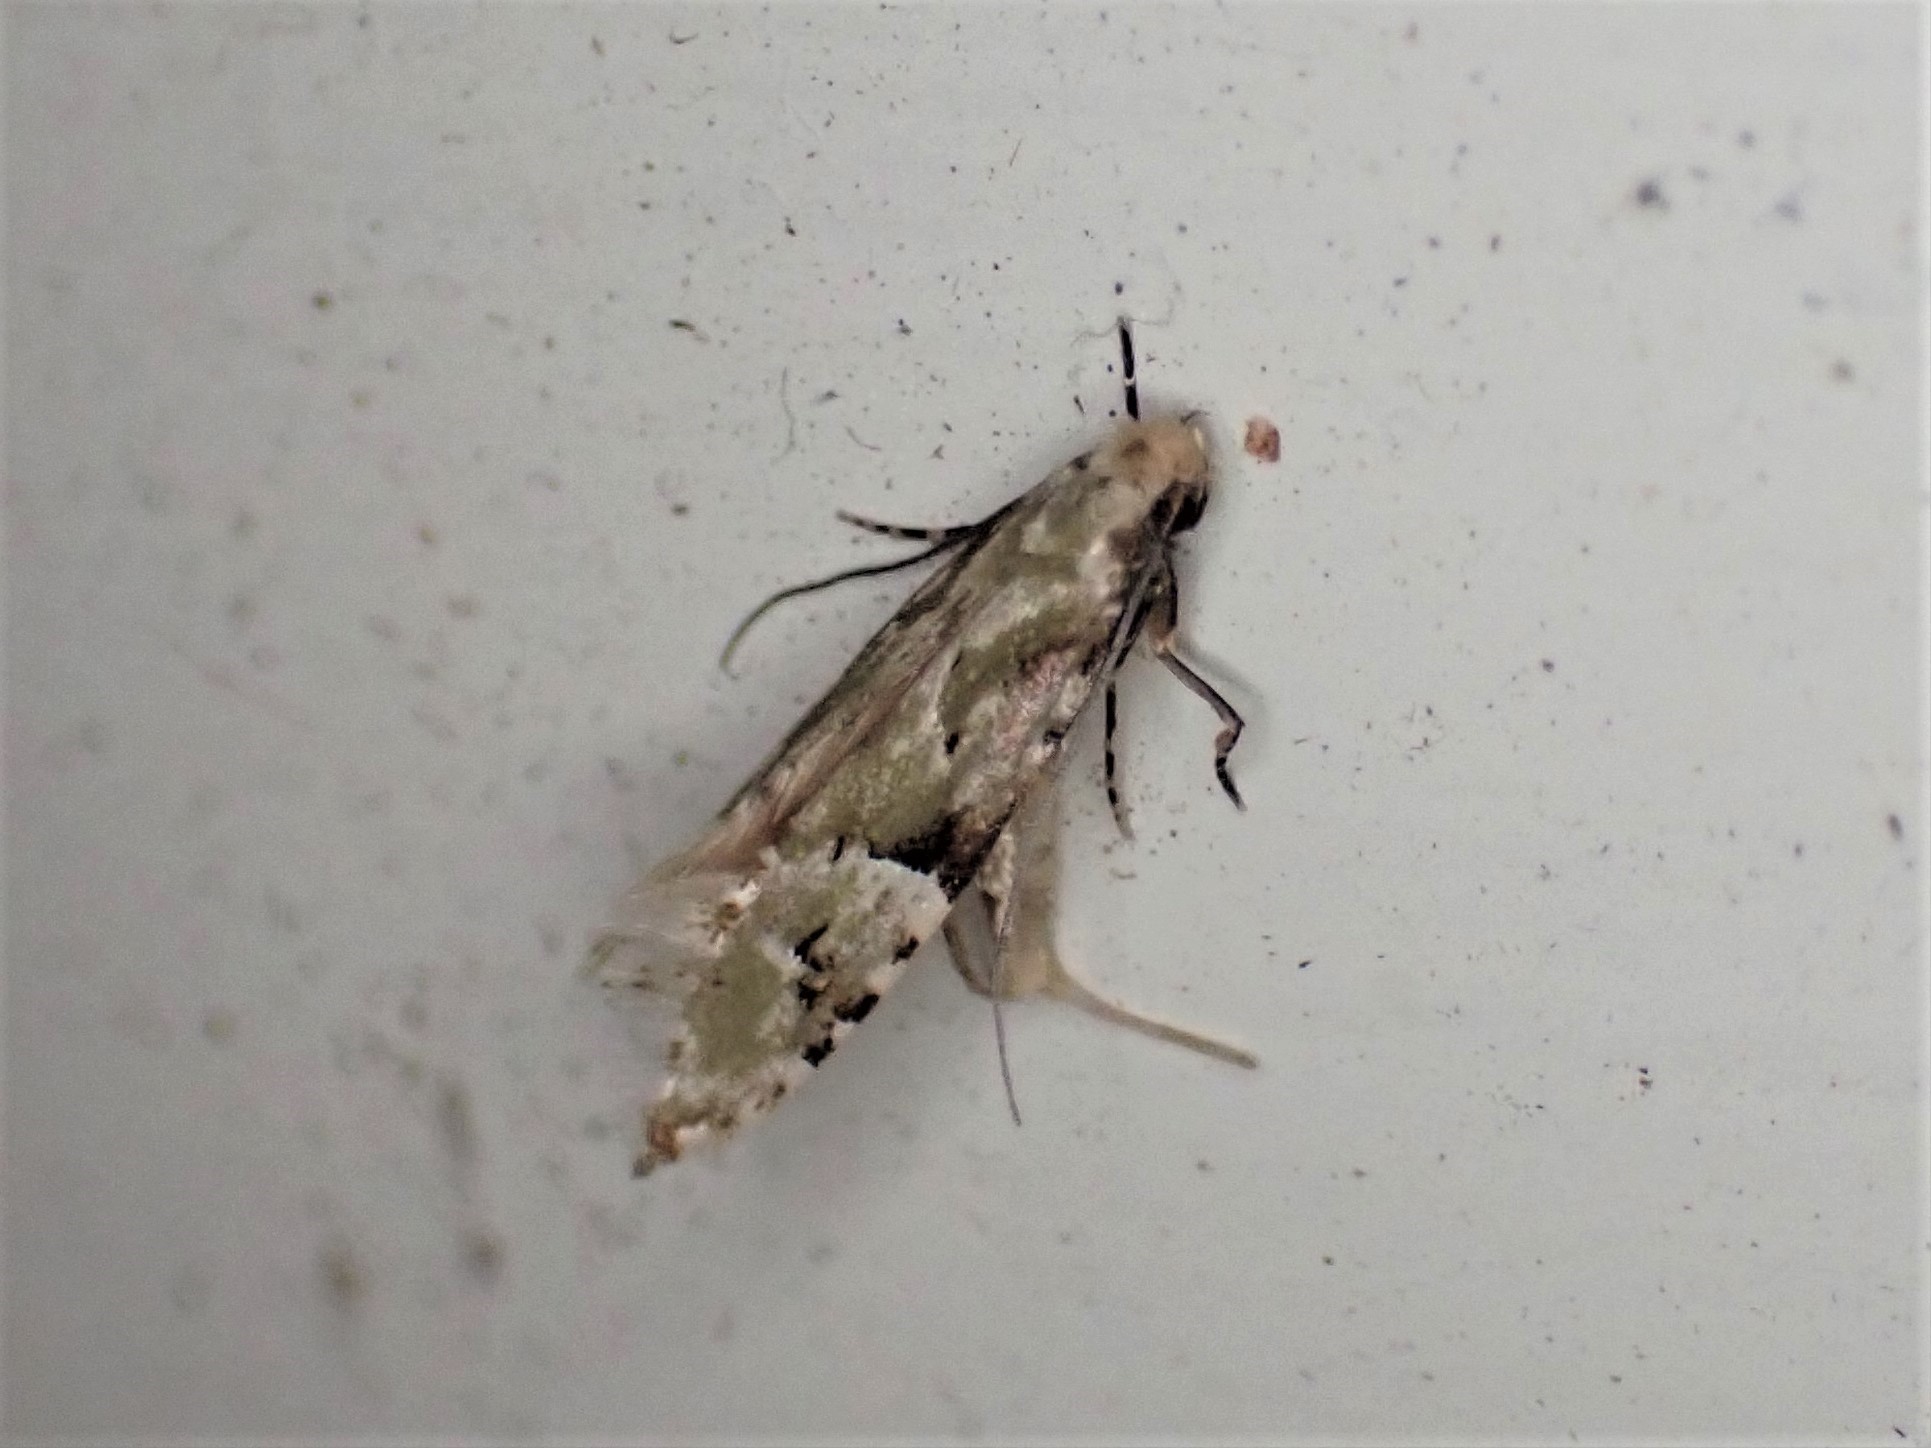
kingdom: Animalia
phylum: Arthropoda
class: Insecta
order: Lepidoptera
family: Tineidae
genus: Crypsitricha
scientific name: Crypsitricha mesotypa
